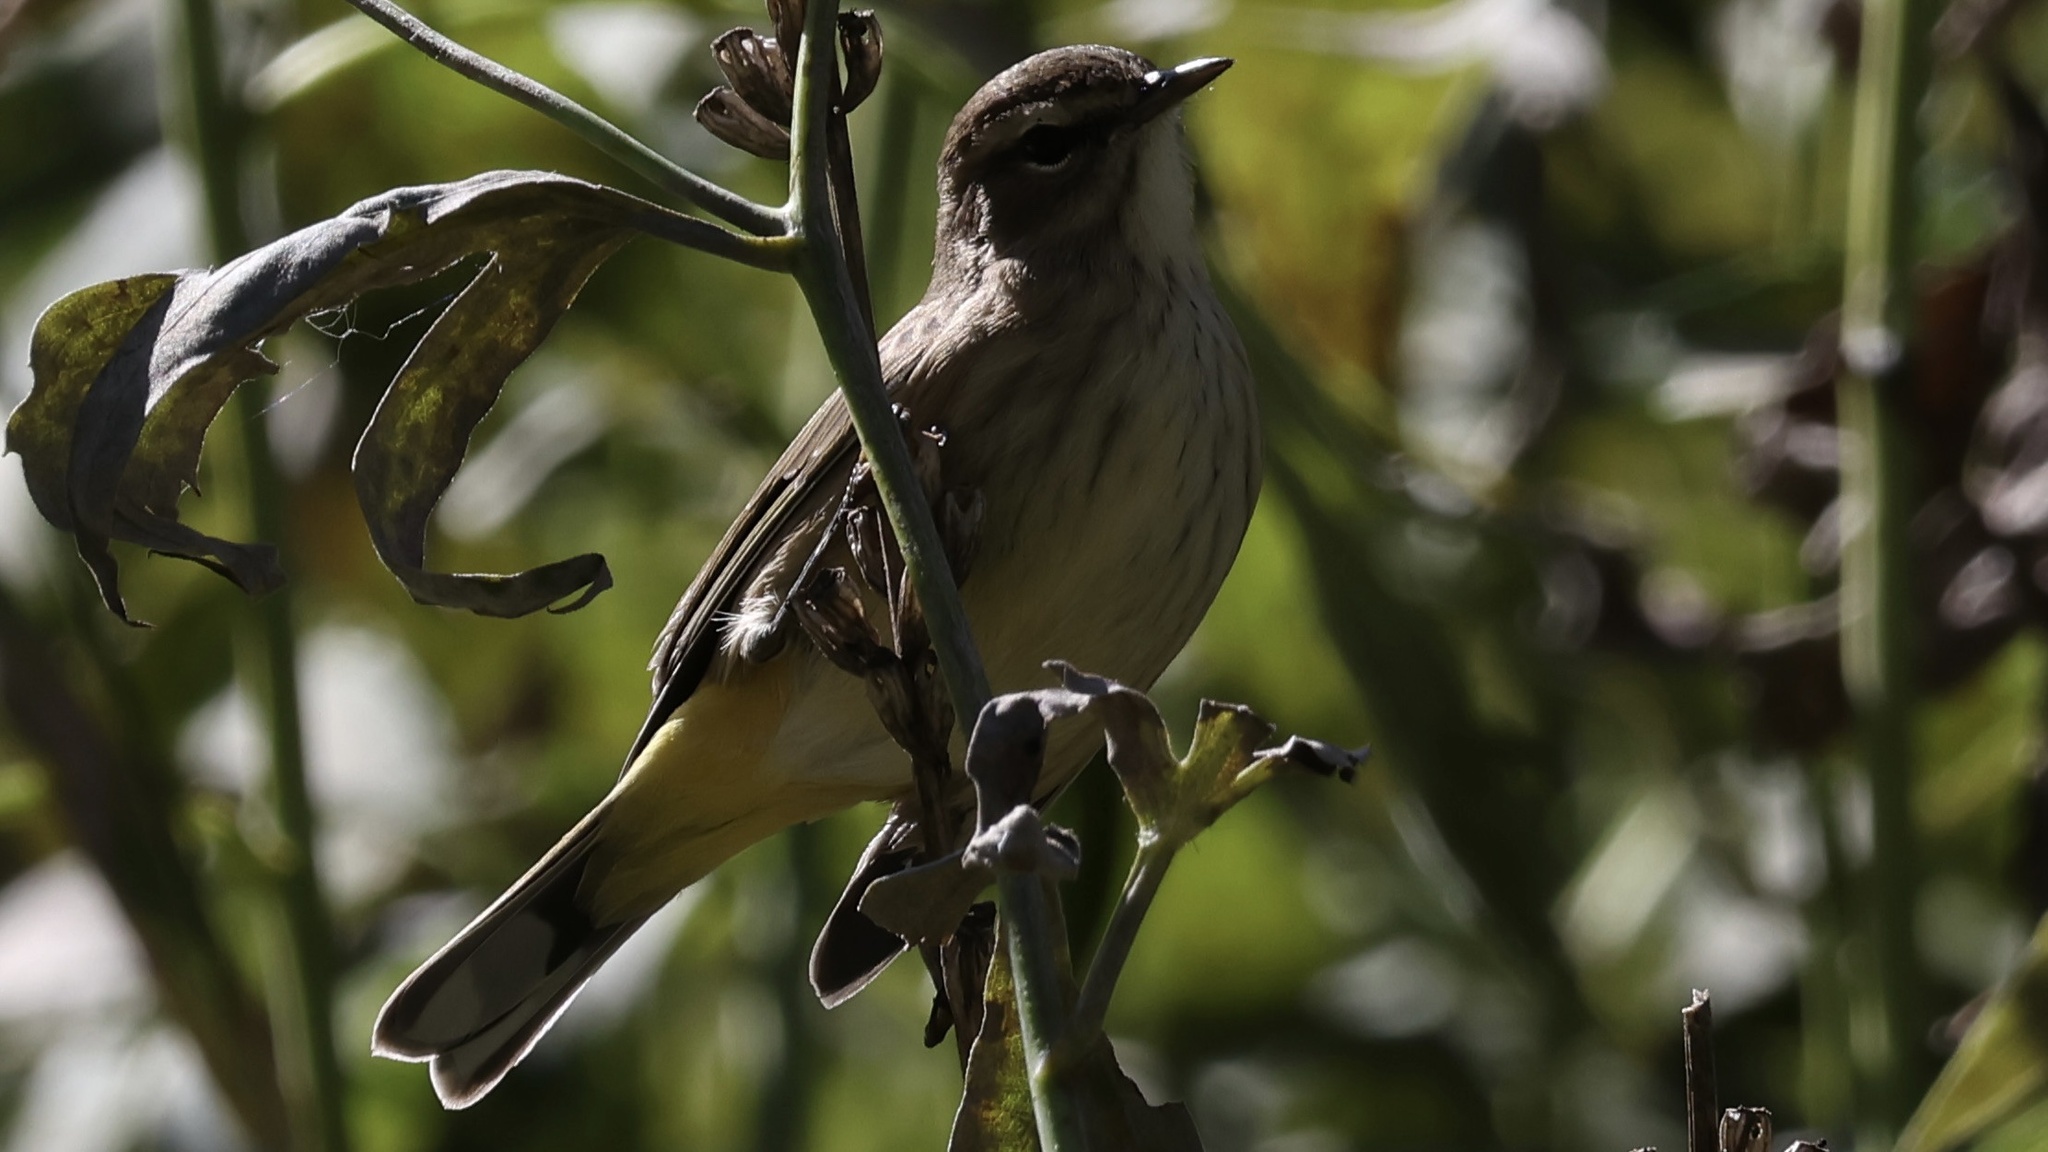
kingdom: Animalia
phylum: Chordata
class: Aves
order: Passeriformes
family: Parulidae
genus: Setophaga
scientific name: Setophaga palmarum
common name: Palm warbler
